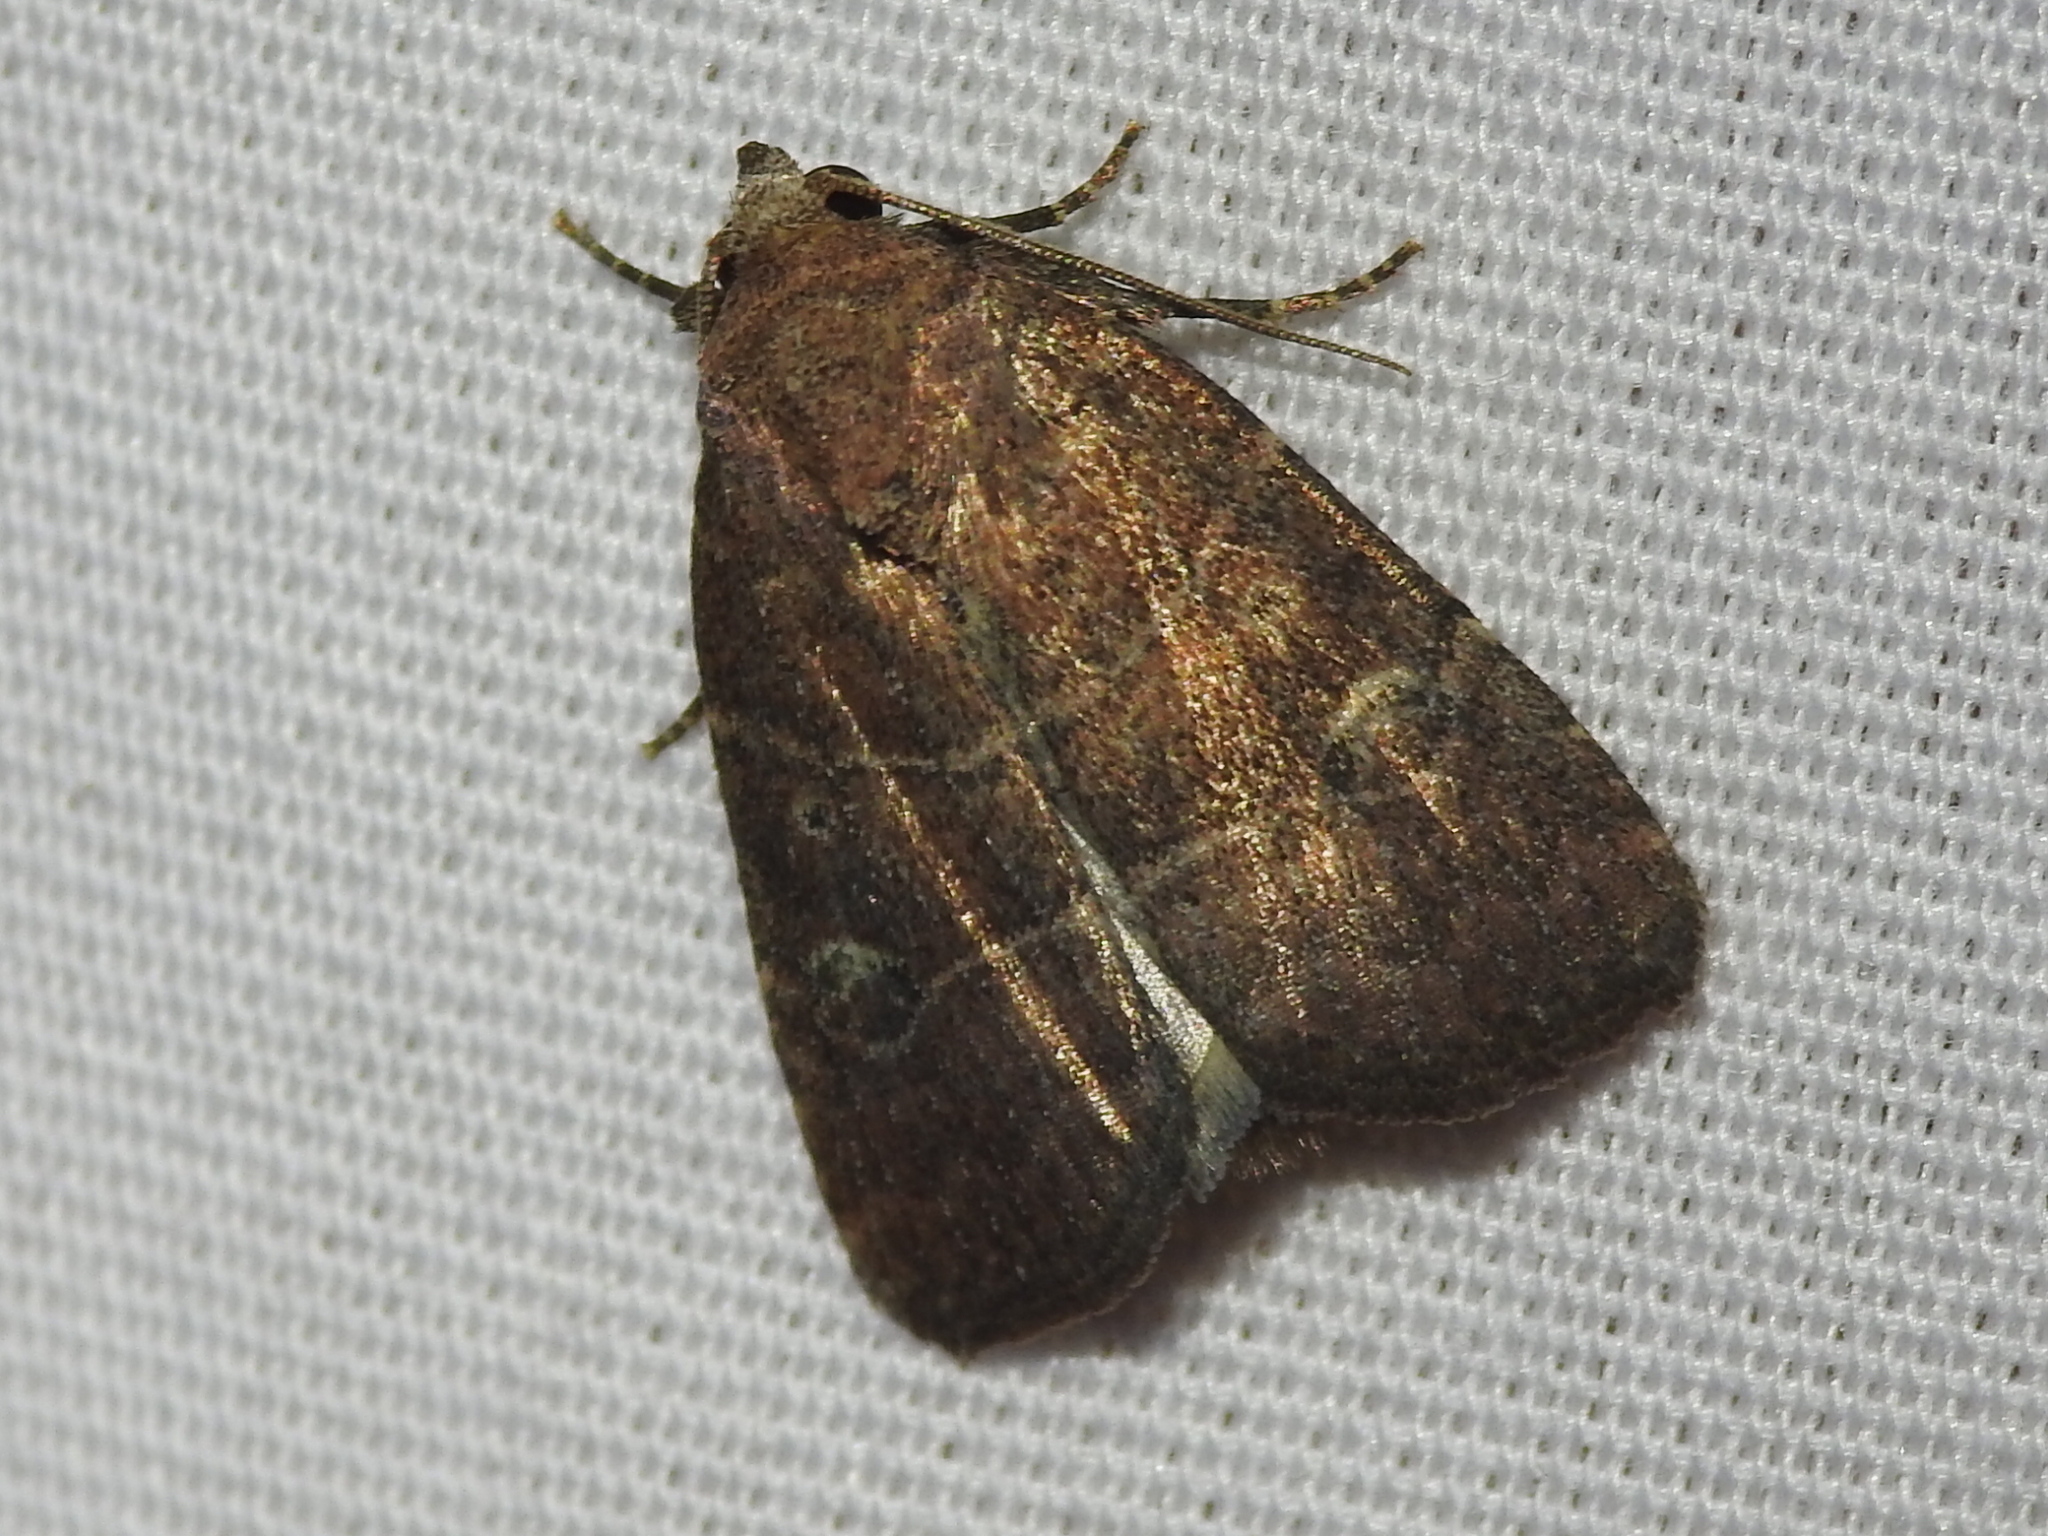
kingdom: Animalia
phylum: Arthropoda
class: Insecta
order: Lepidoptera
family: Noctuidae
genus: Elaphria
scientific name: Elaphria grata
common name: Grateful midget moth
